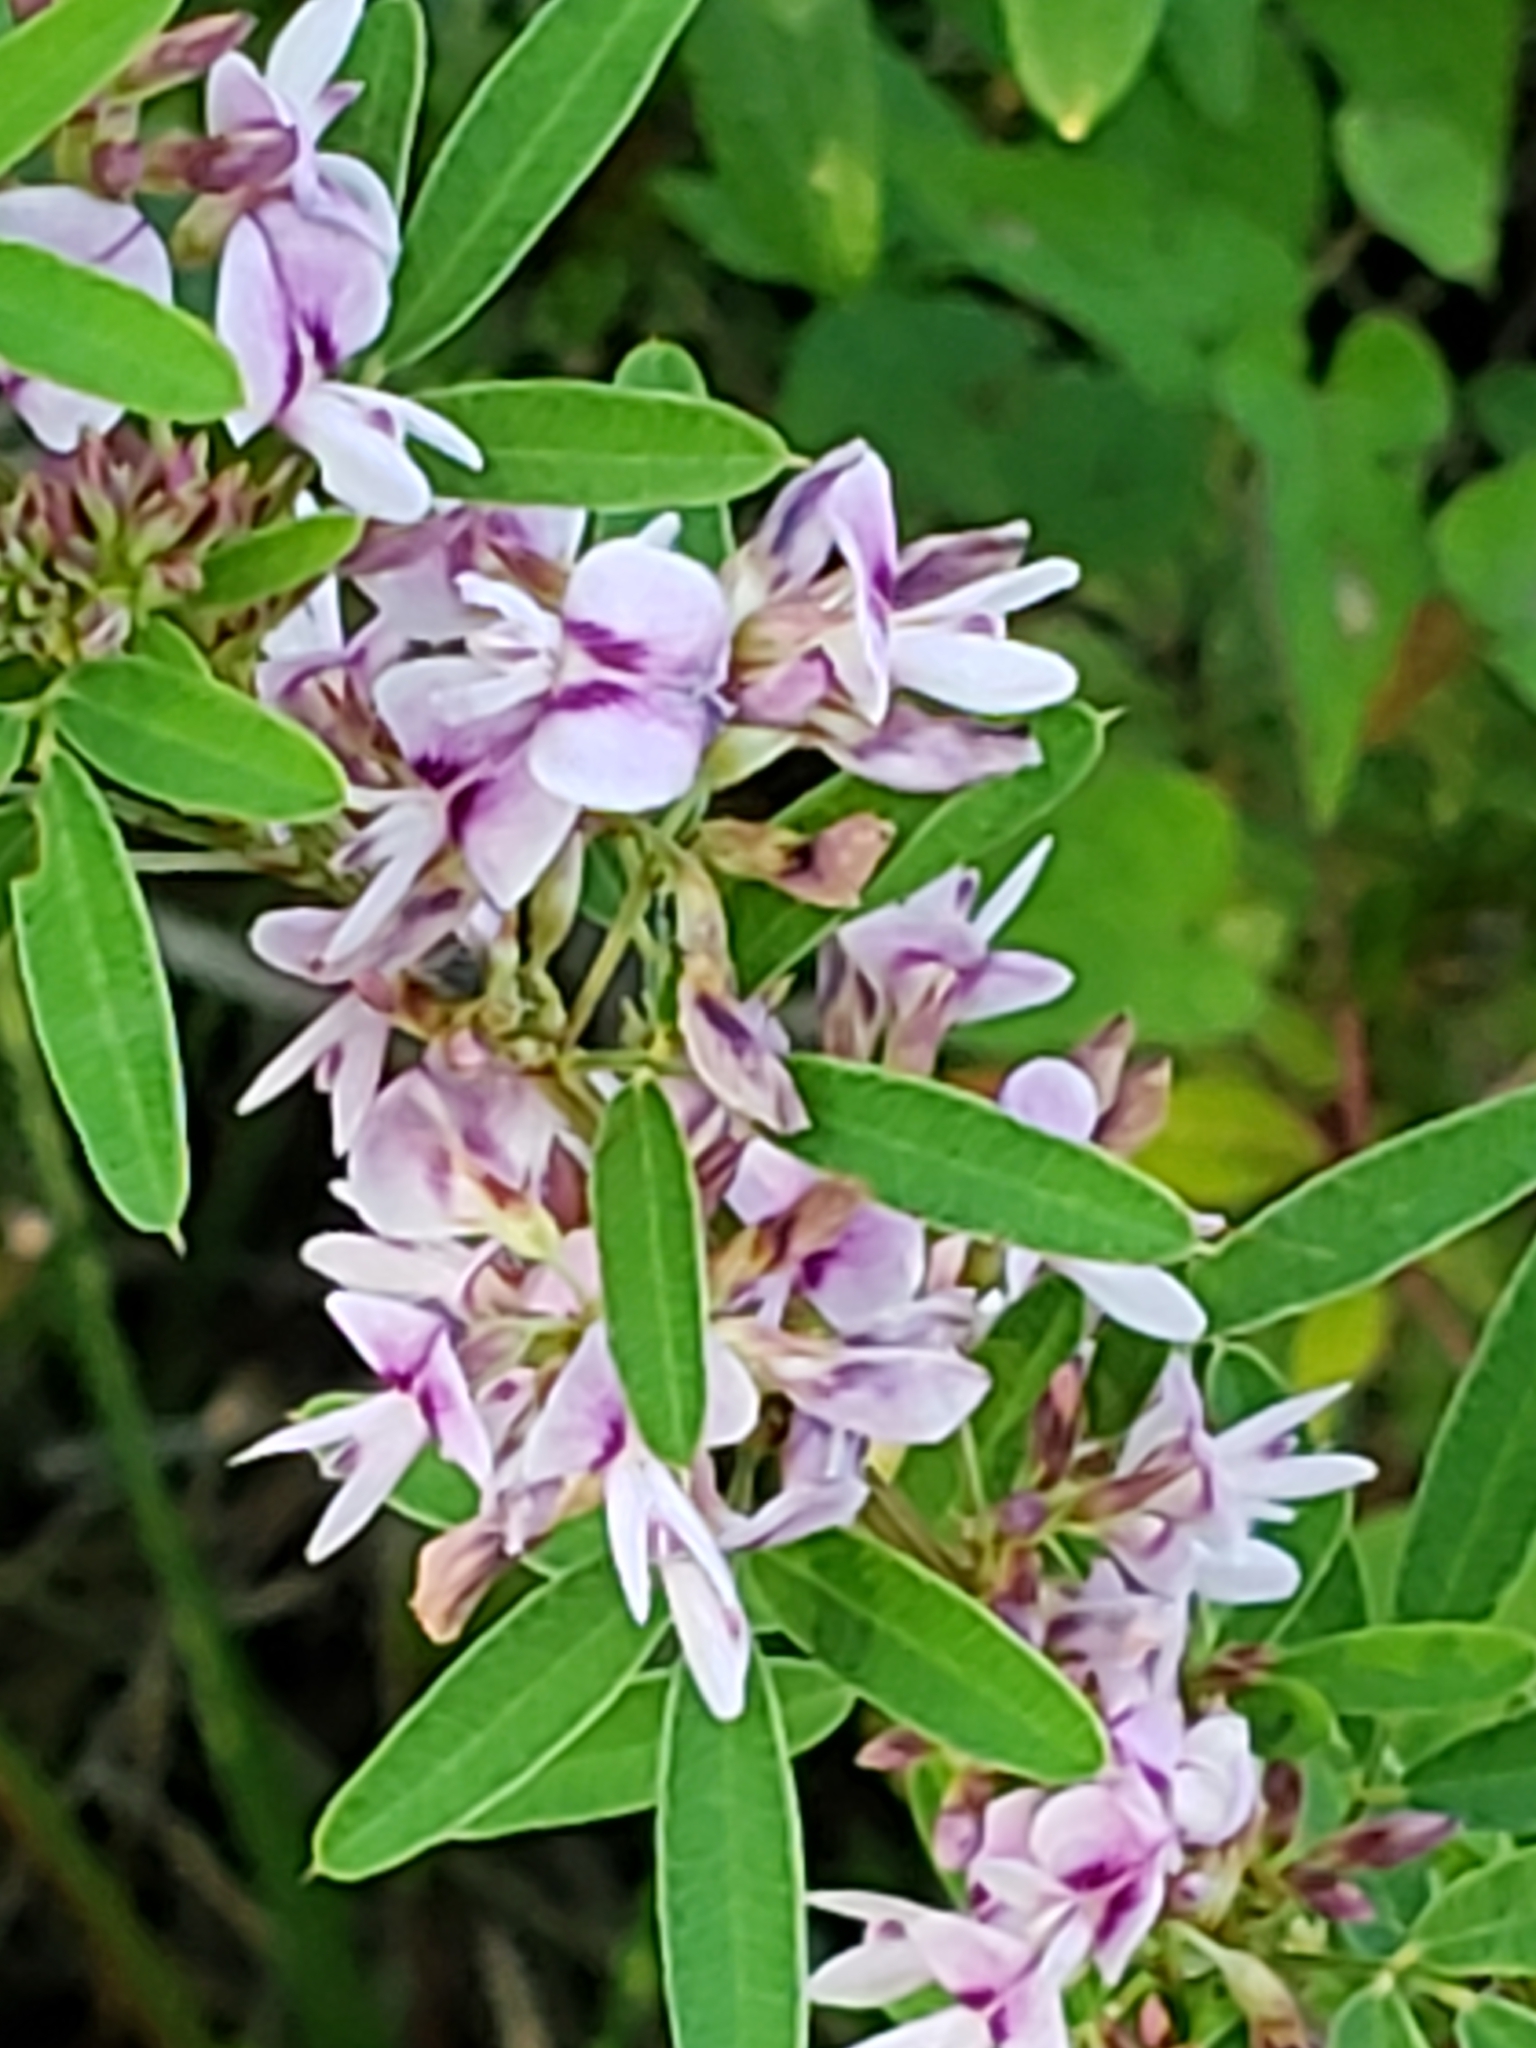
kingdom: Plantae
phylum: Tracheophyta
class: Magnoliopsida
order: Fabales
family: Fabaceae
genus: Lespedeza
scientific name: Lespedeza virginica
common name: Slender bush-clover
